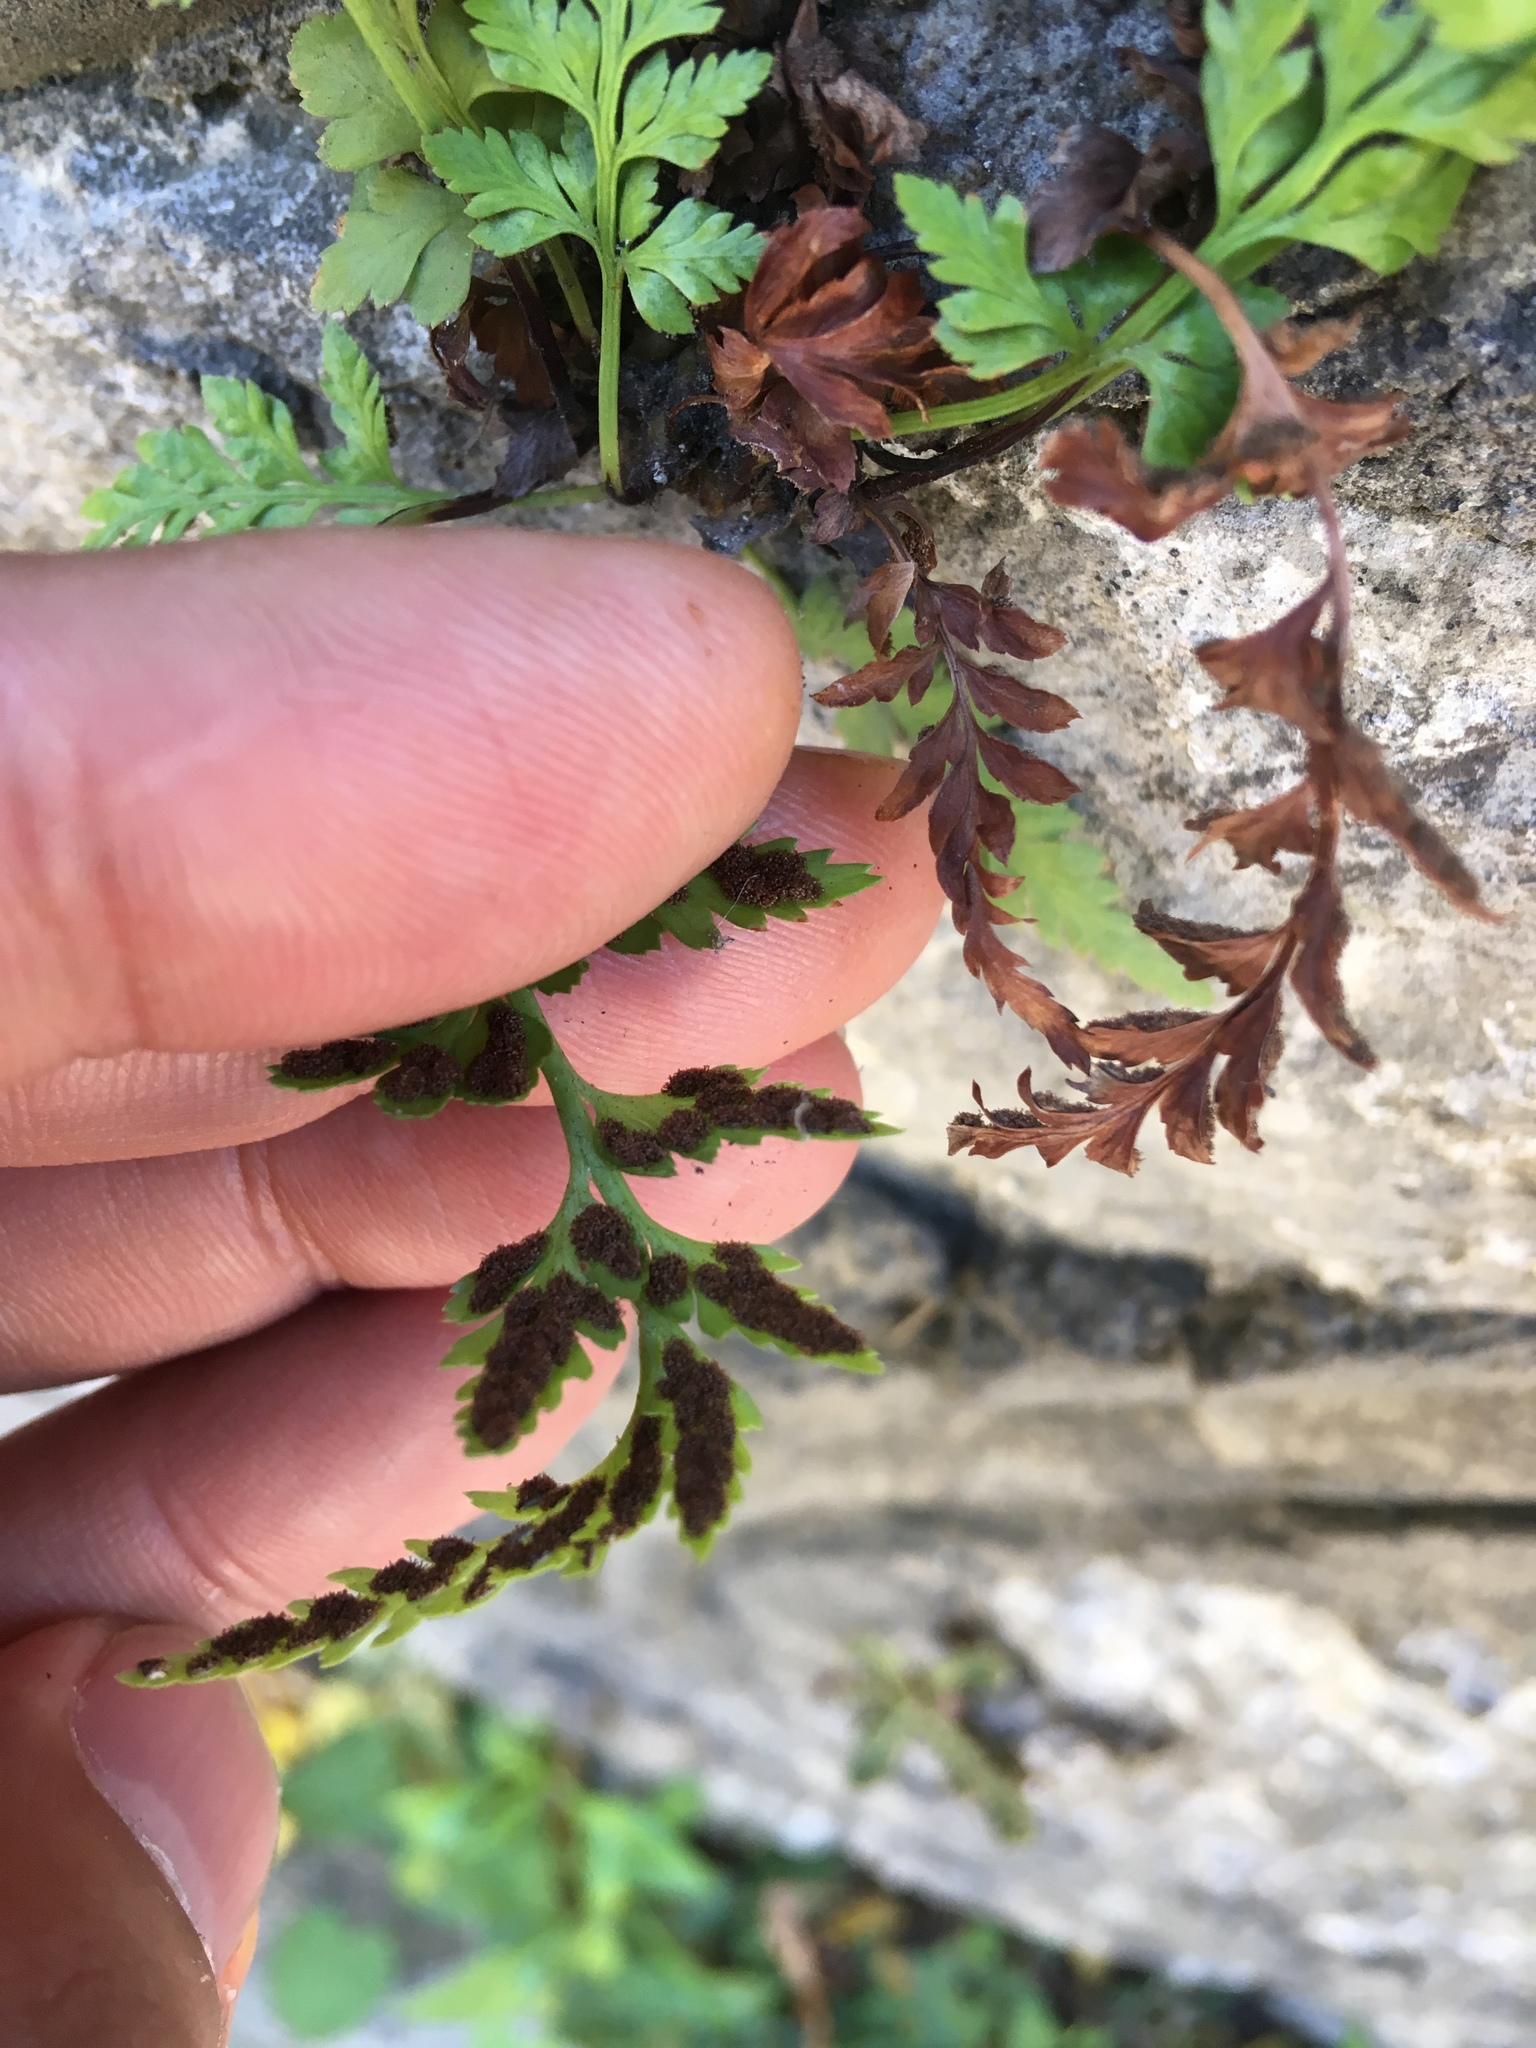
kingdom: Plantae
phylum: Tracheophyta
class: Polypodiopsida
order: Polypodiales
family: Aspleniaceae
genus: Asplenium
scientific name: Asplenium adiantum-nigrum
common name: Black spleenwort
